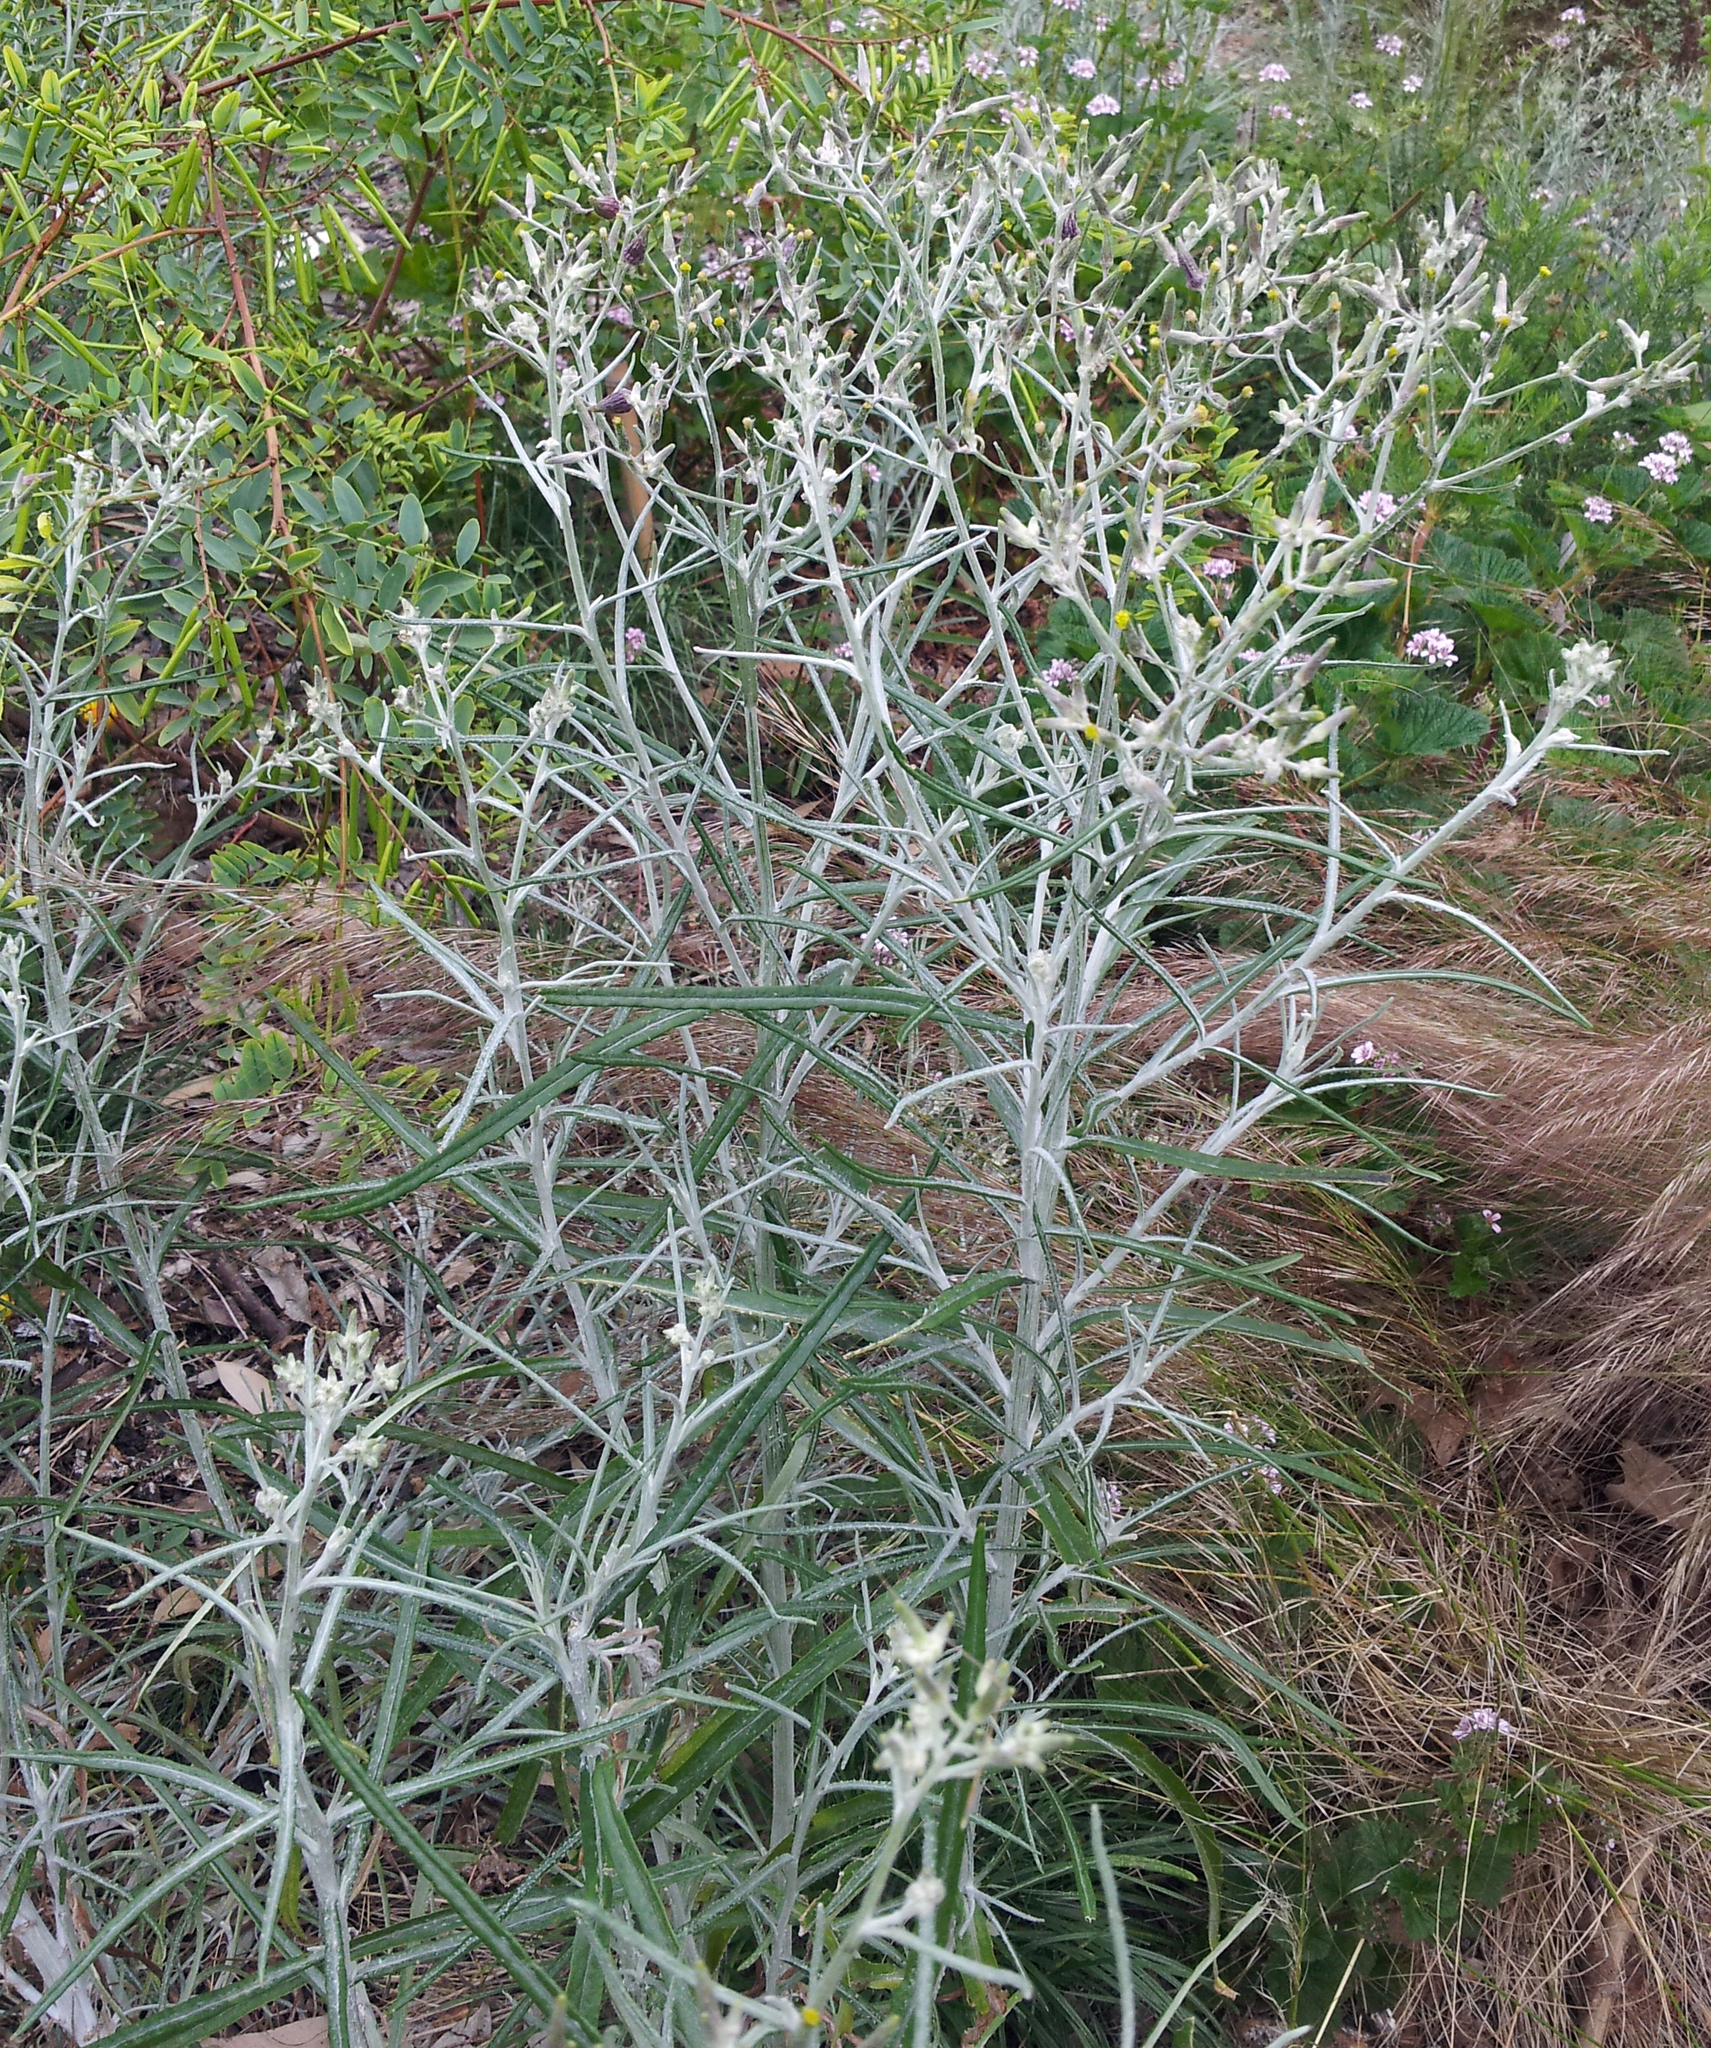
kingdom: Plantae
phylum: Tracheophyta
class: Magnoliopsida
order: Asterales
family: Asteraceae
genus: Senecio
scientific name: Senecio quadridentatus
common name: Cotton fireweed
